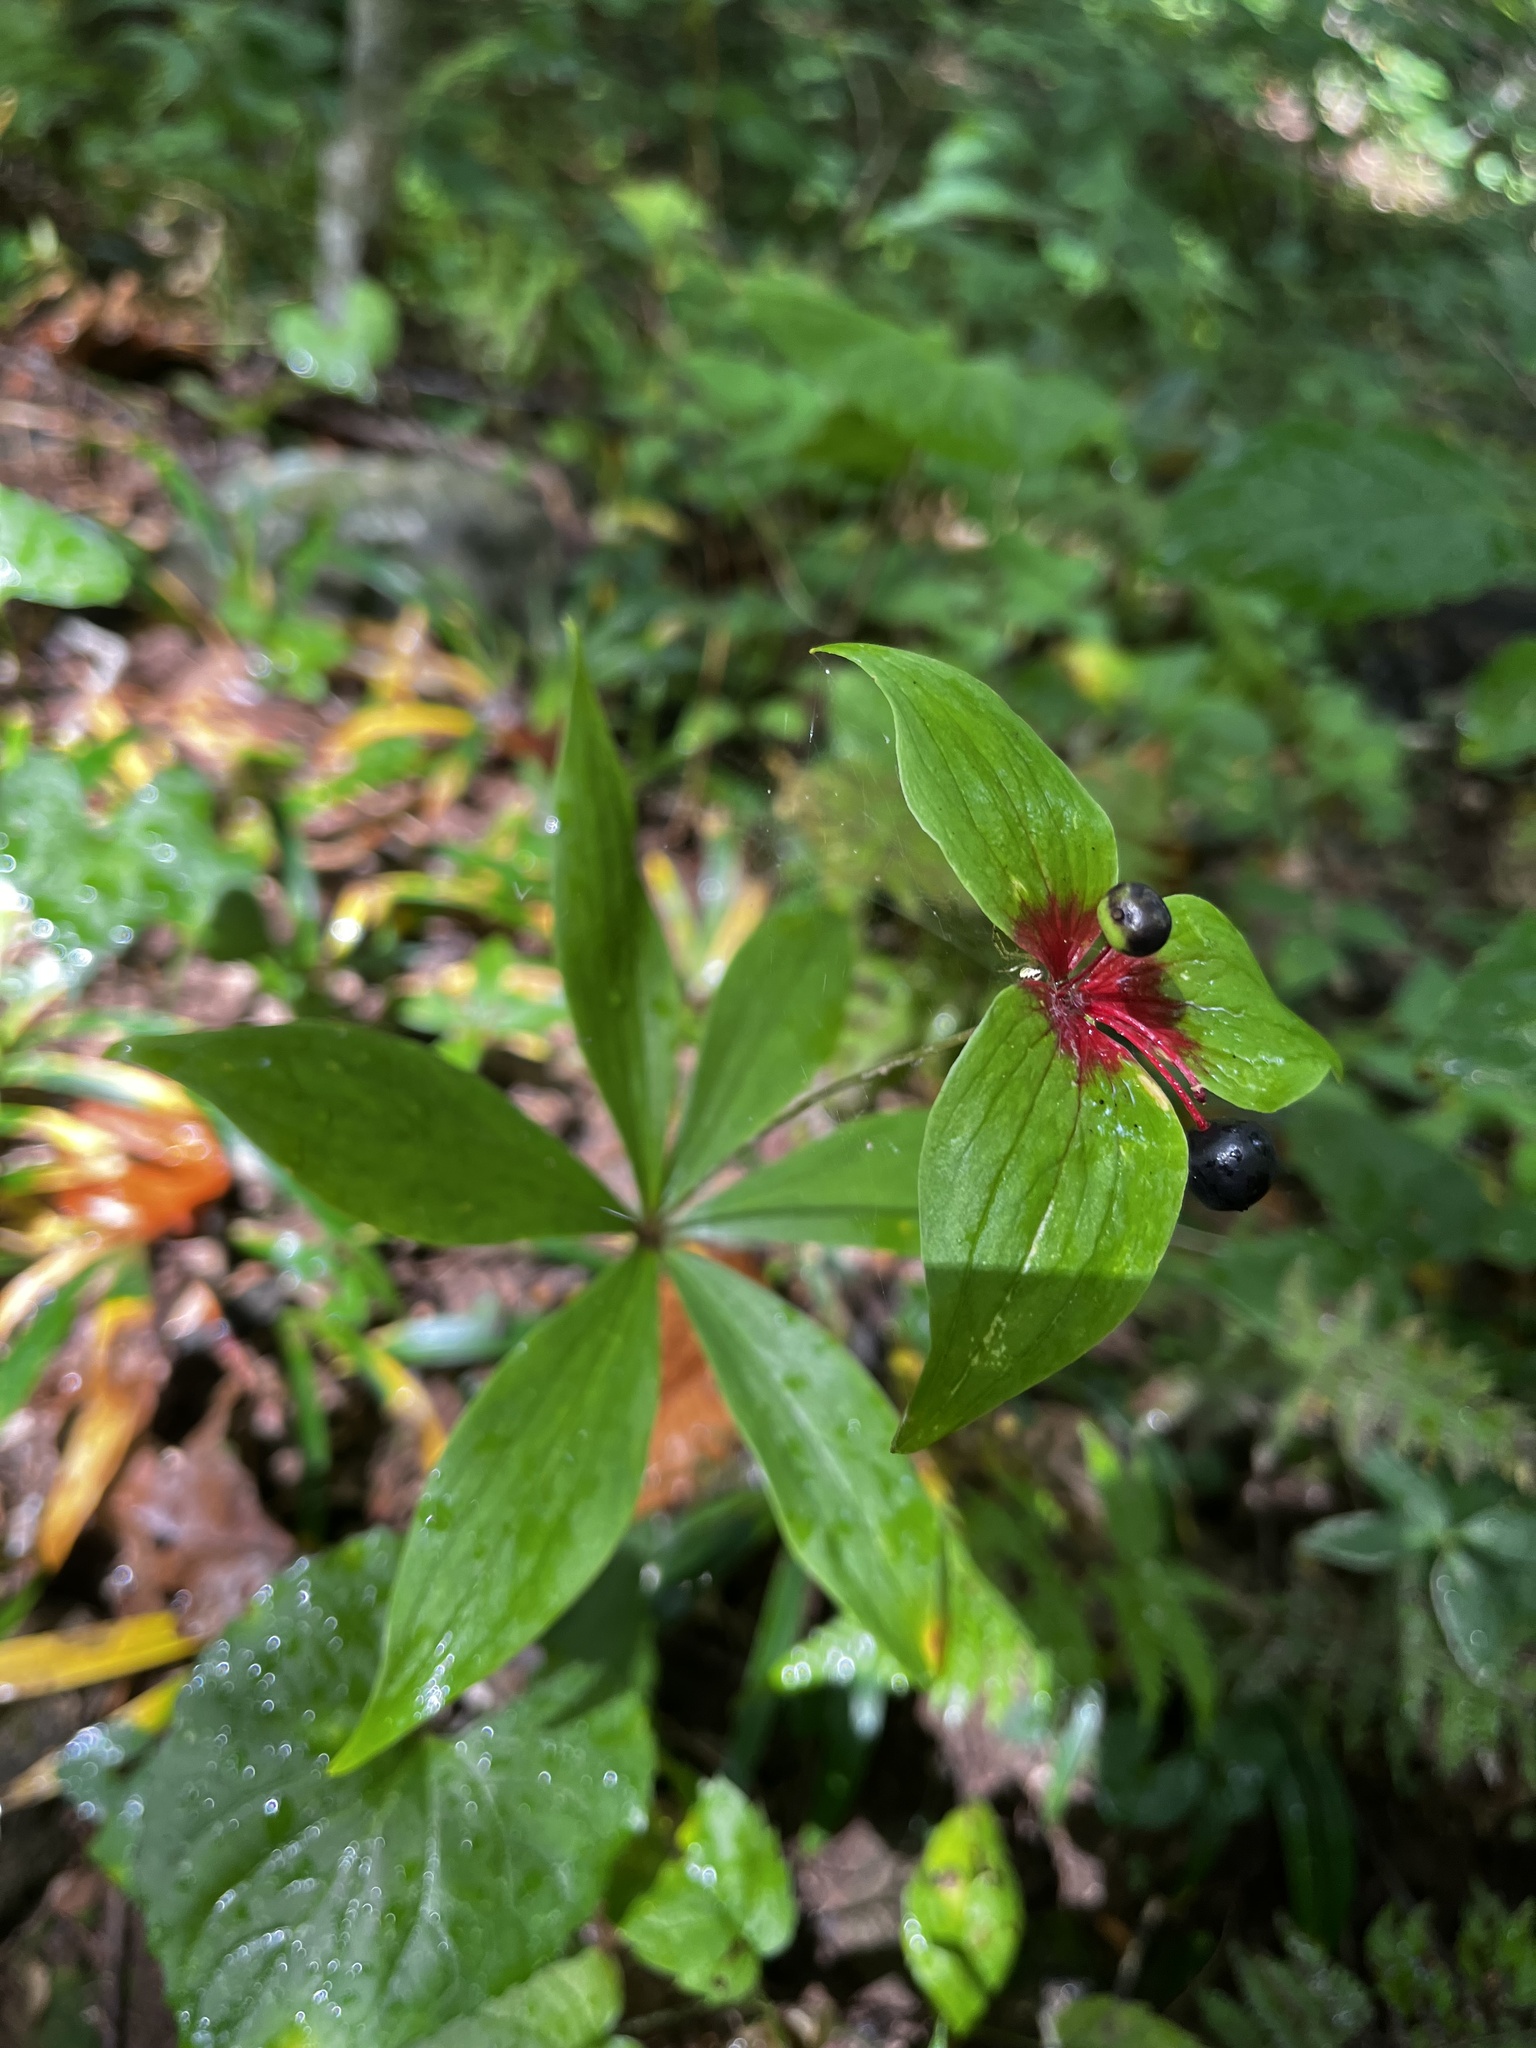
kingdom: Plantae
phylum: Tracheophyta
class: Liliopsida
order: Liliales
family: Liliaceae
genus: Medeola
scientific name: Medeola virginiana
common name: Indian cucumber-root
